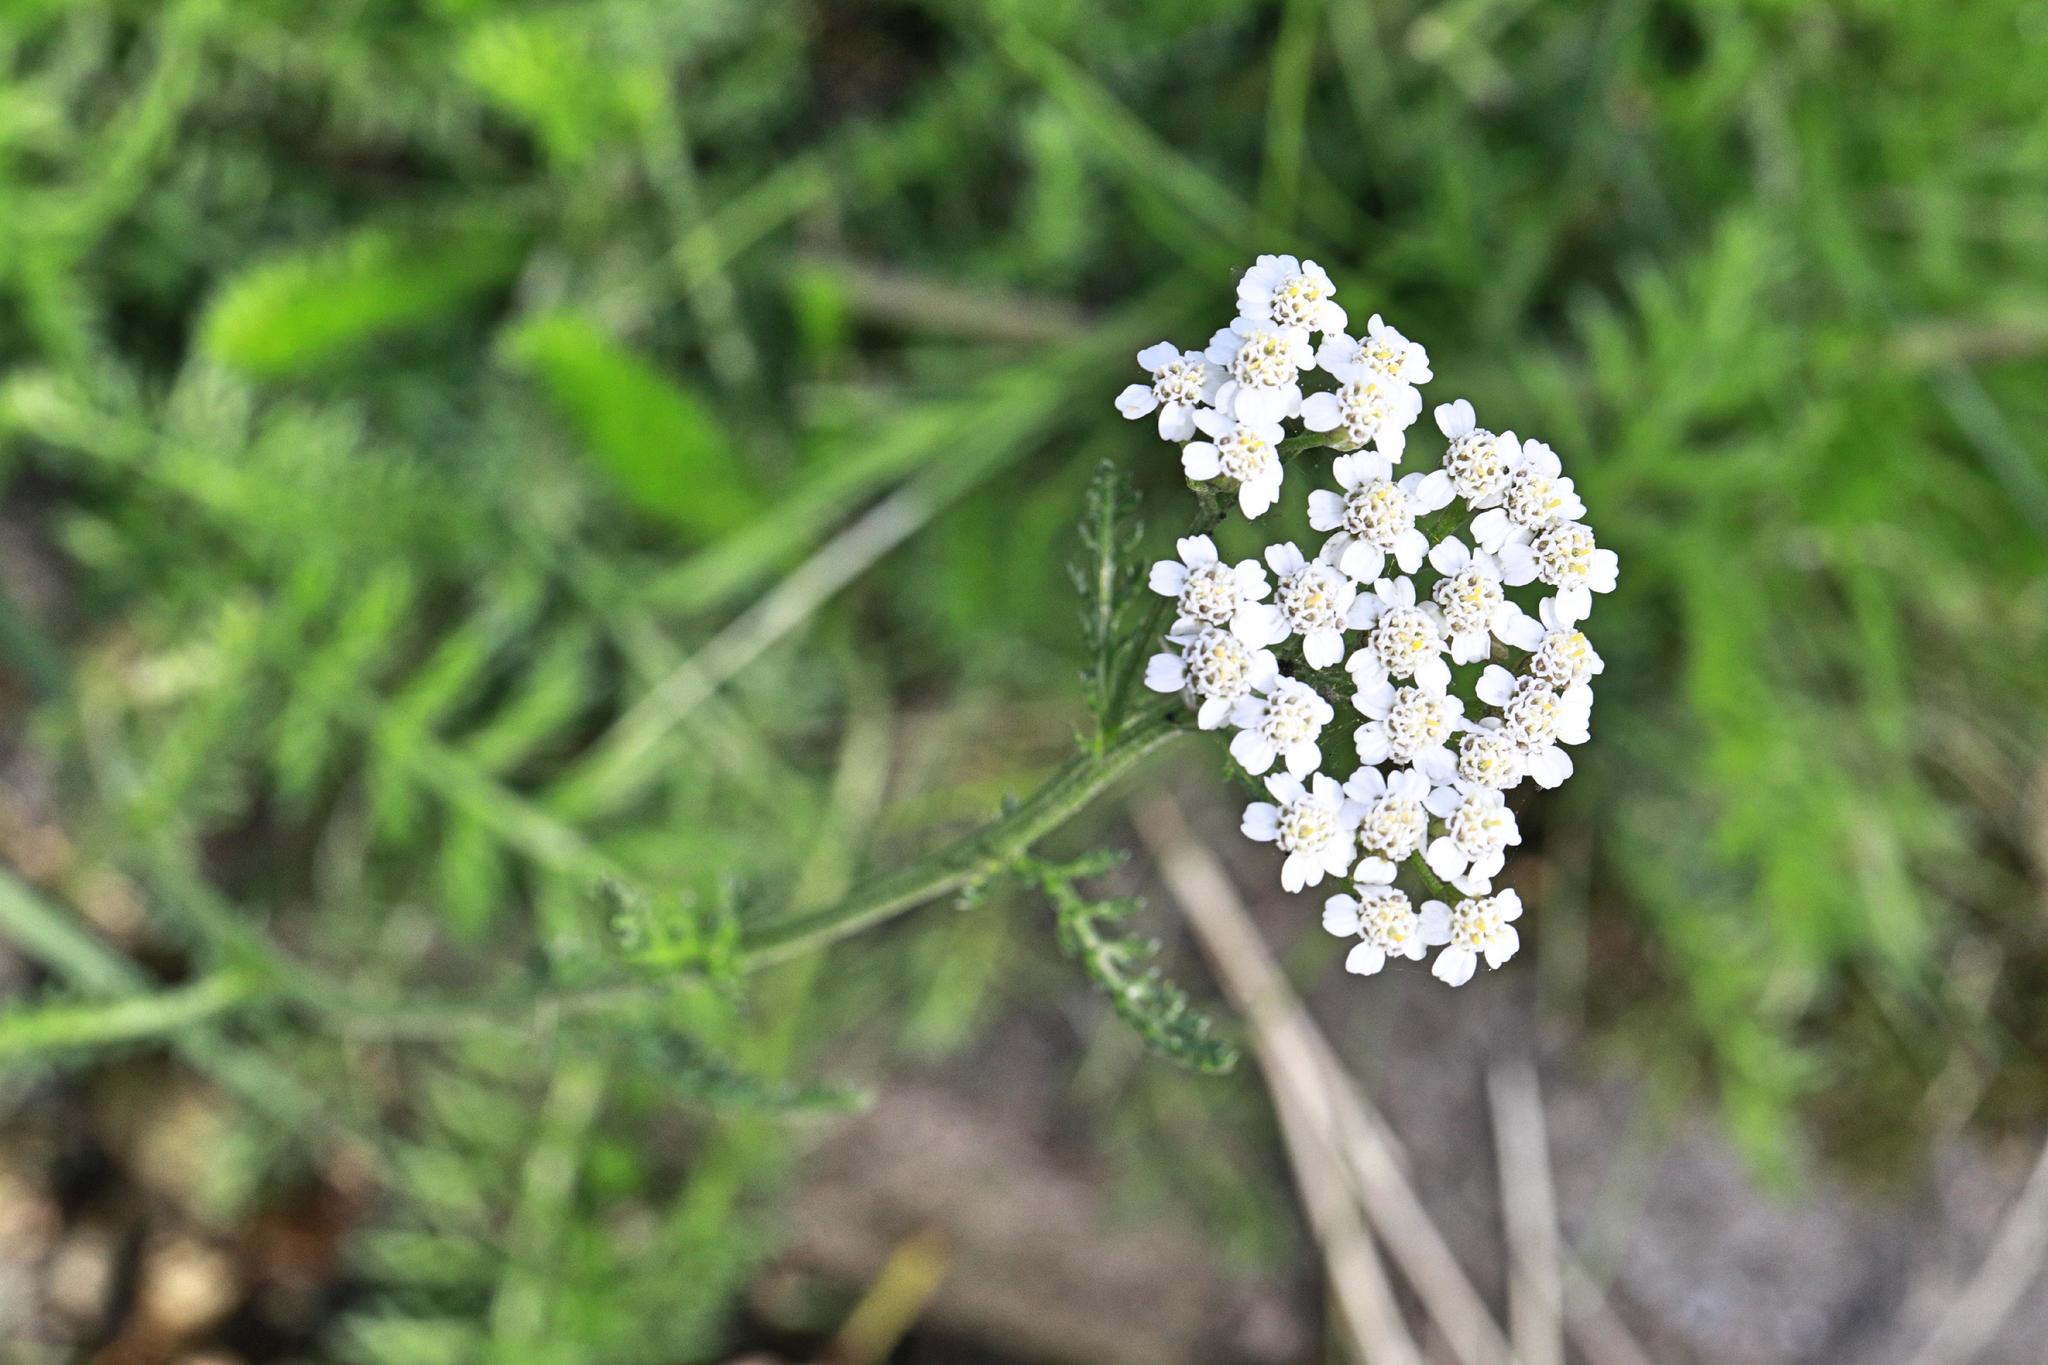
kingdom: Plantae
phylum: Tracheophyta
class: Magnoliopsida
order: Asterales
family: Asteraceae
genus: Achillea
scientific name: Achillea millefolium
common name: Yarrow
